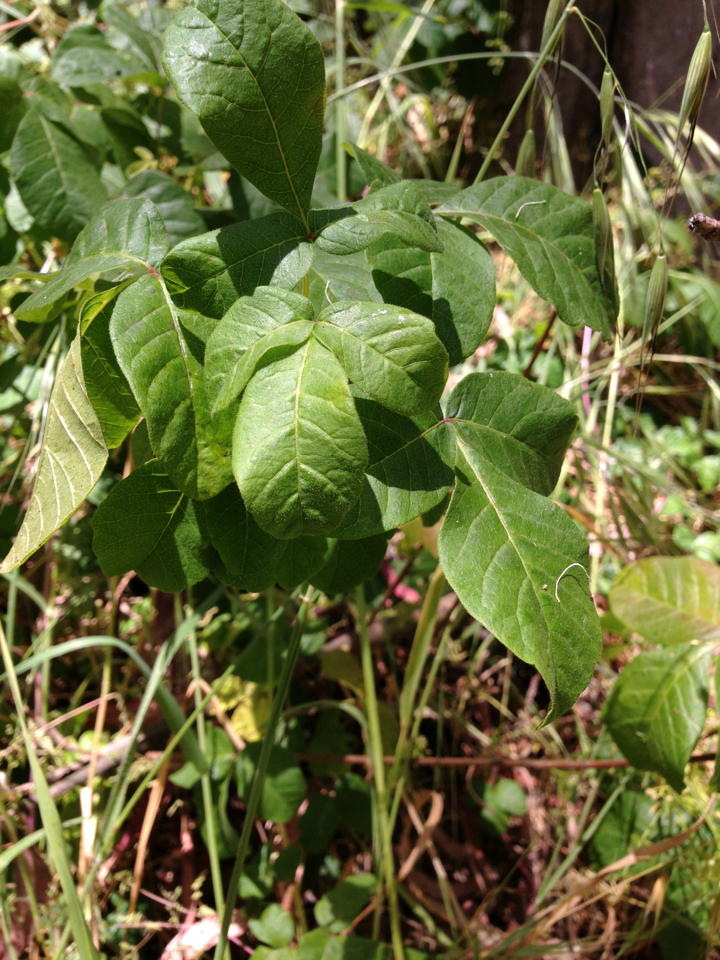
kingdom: Plantae
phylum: Tracheophyta
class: Magnoliopsida
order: Sapindales
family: Anacardiaceae
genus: Toxicodendron
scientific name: Toxicodendron diversilobum
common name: Pacific poison-oak
